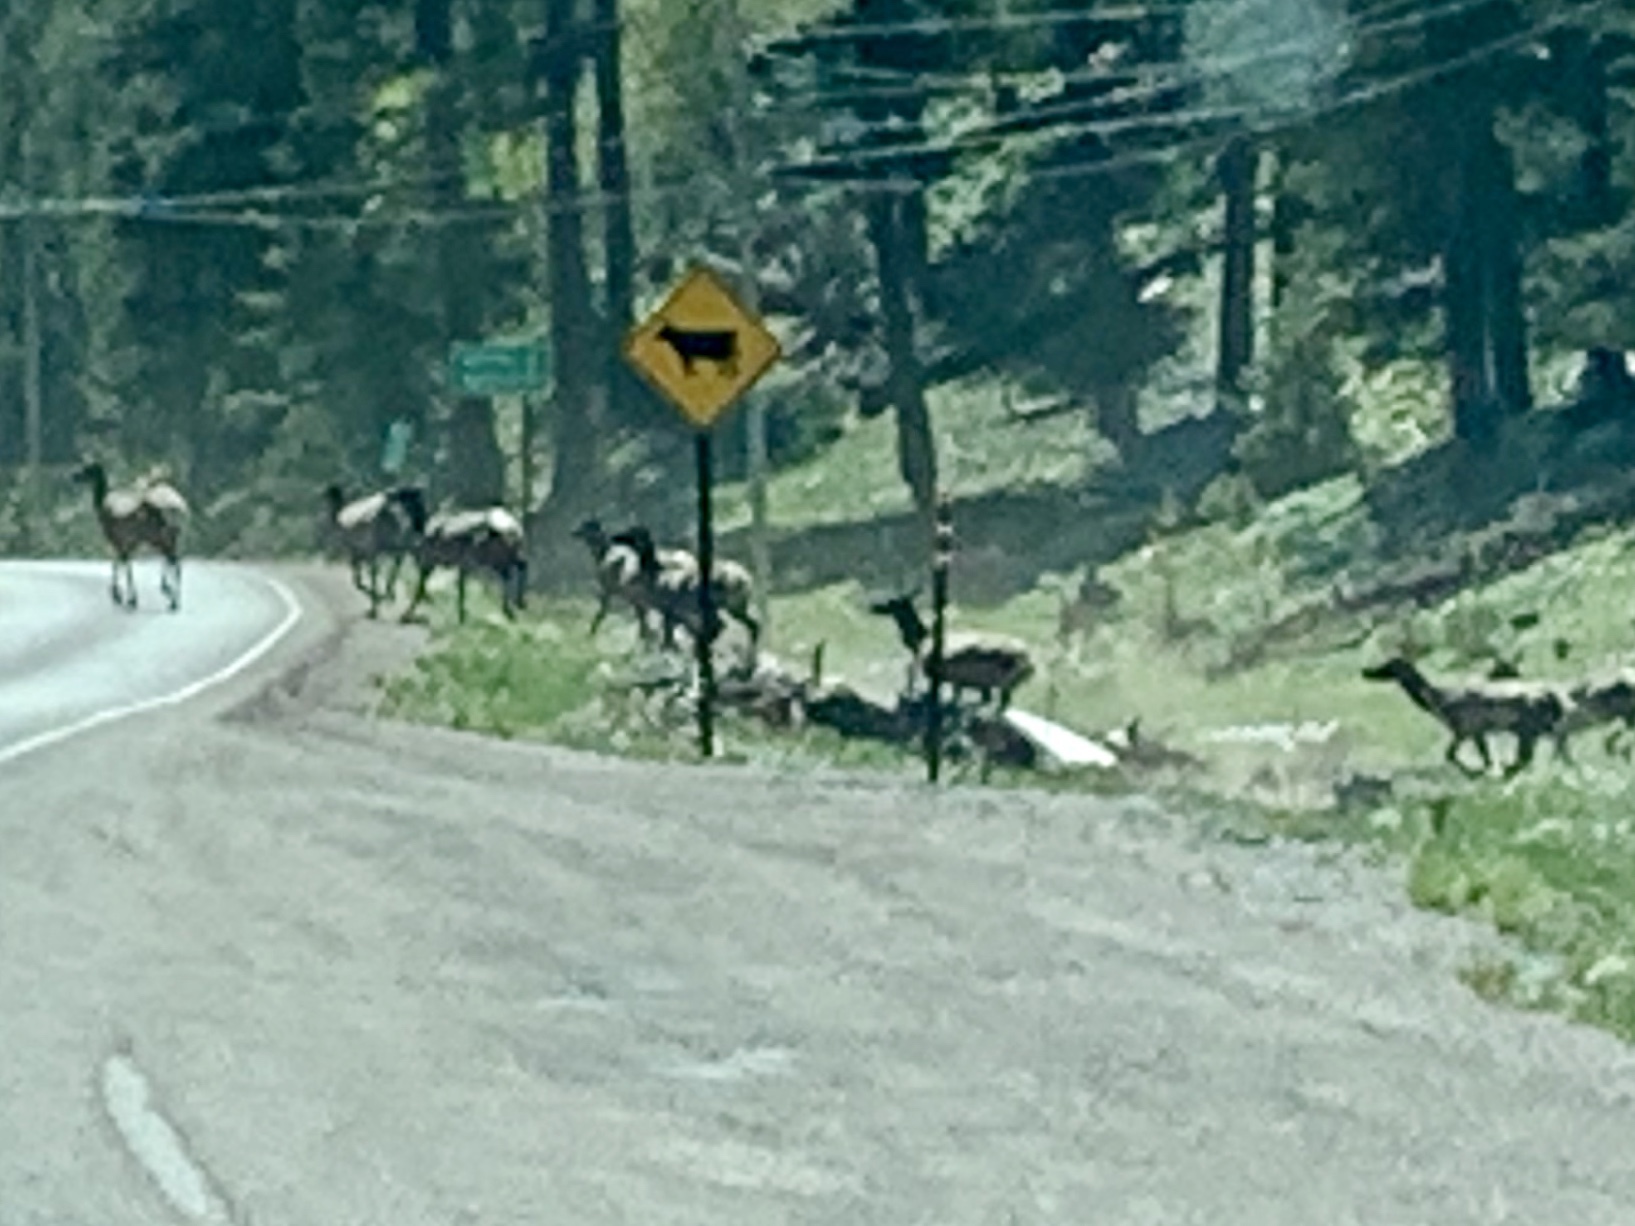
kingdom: Animalia
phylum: Chordata
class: Mammalia
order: Artiodactyla
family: Cervidae
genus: Cervus
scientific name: Cervus elaphus
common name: Red deer
